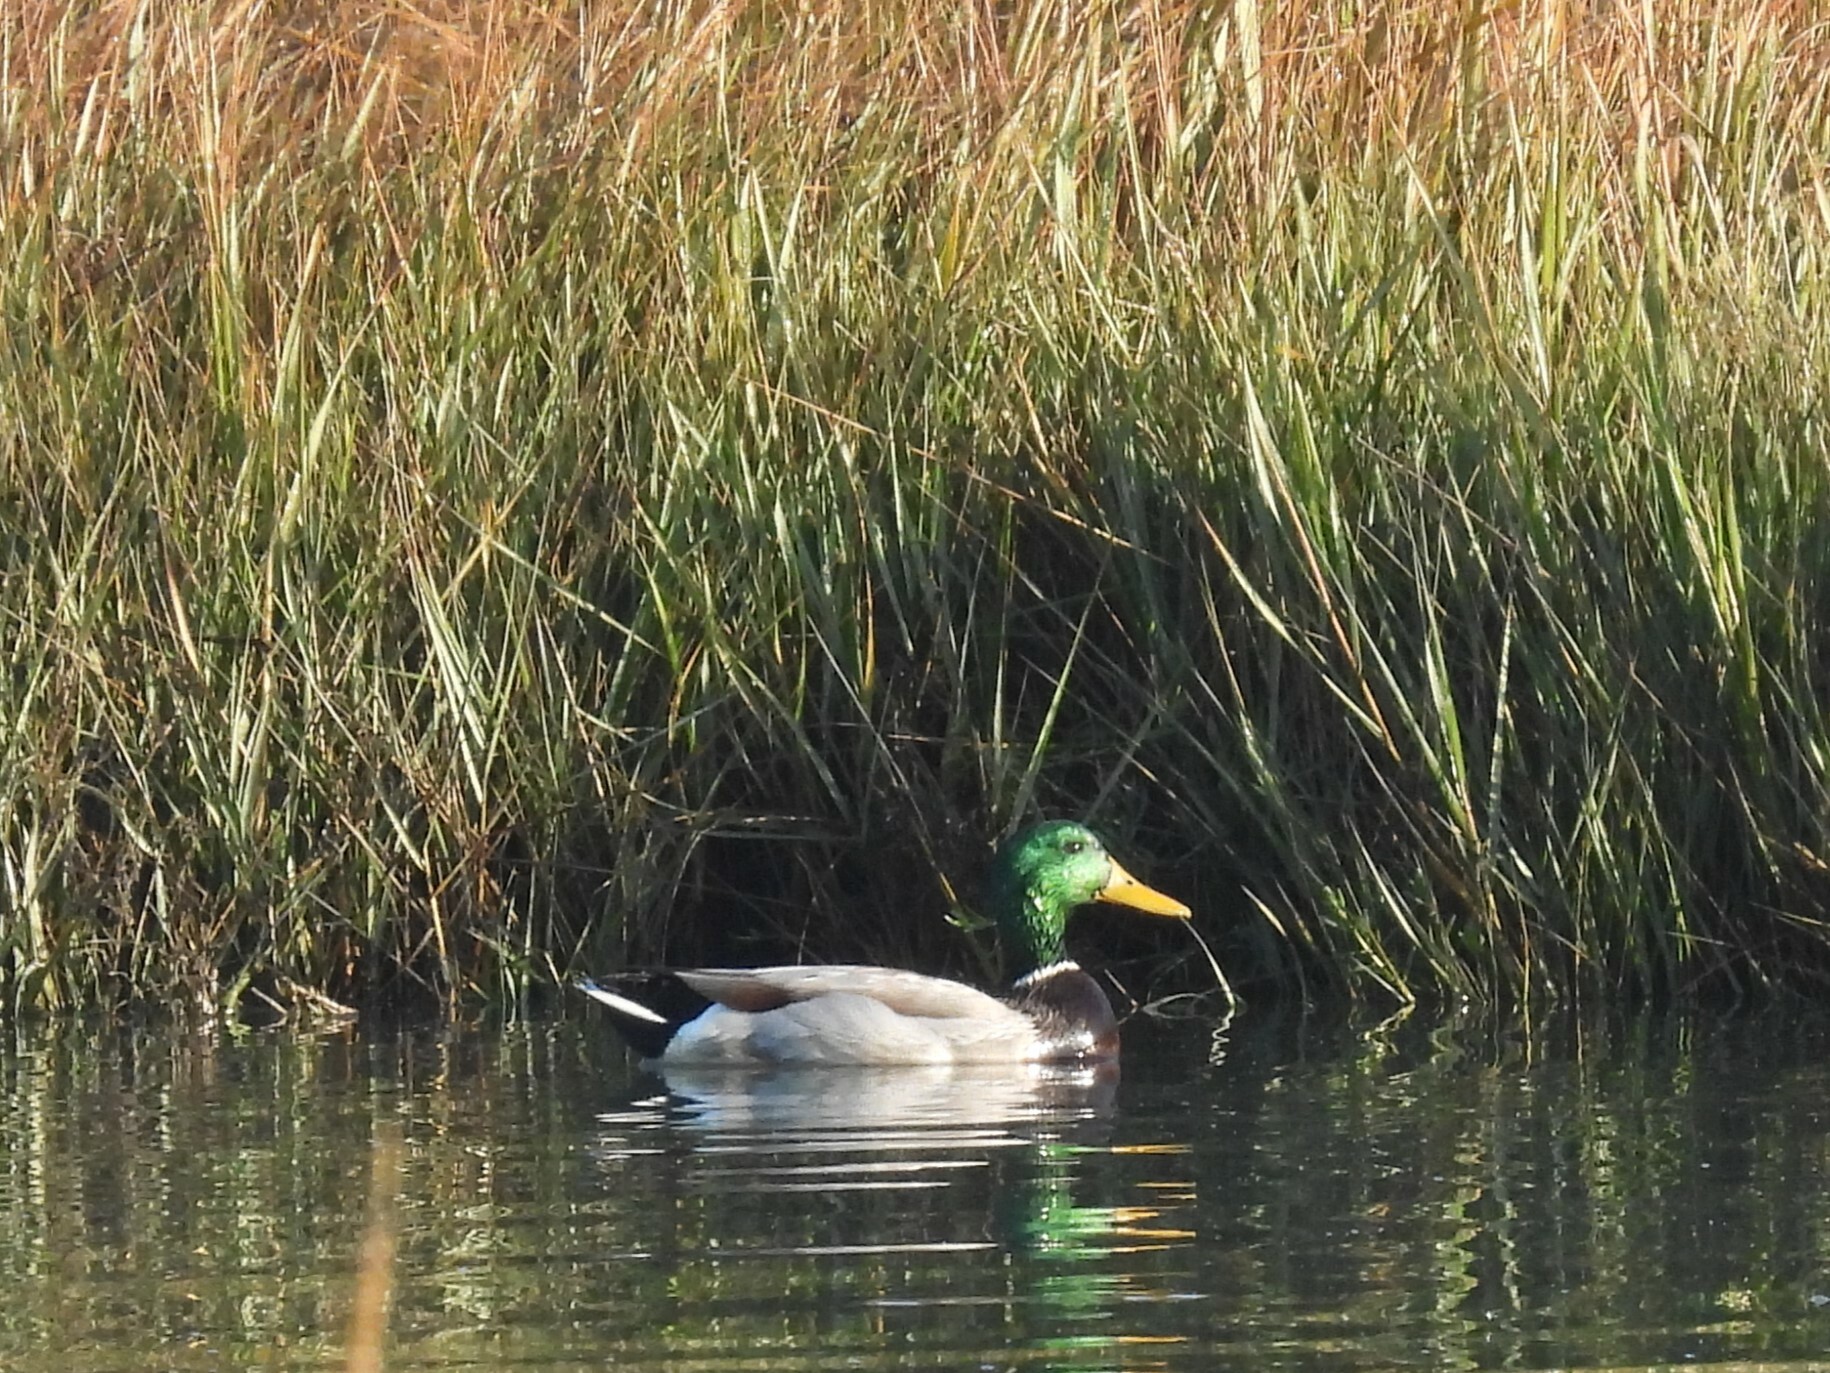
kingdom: Animalia
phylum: Chordata
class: Aves
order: Anseriformes
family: Anatidae
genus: Anas
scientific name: Anas platyrhynchos
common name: Mallard
